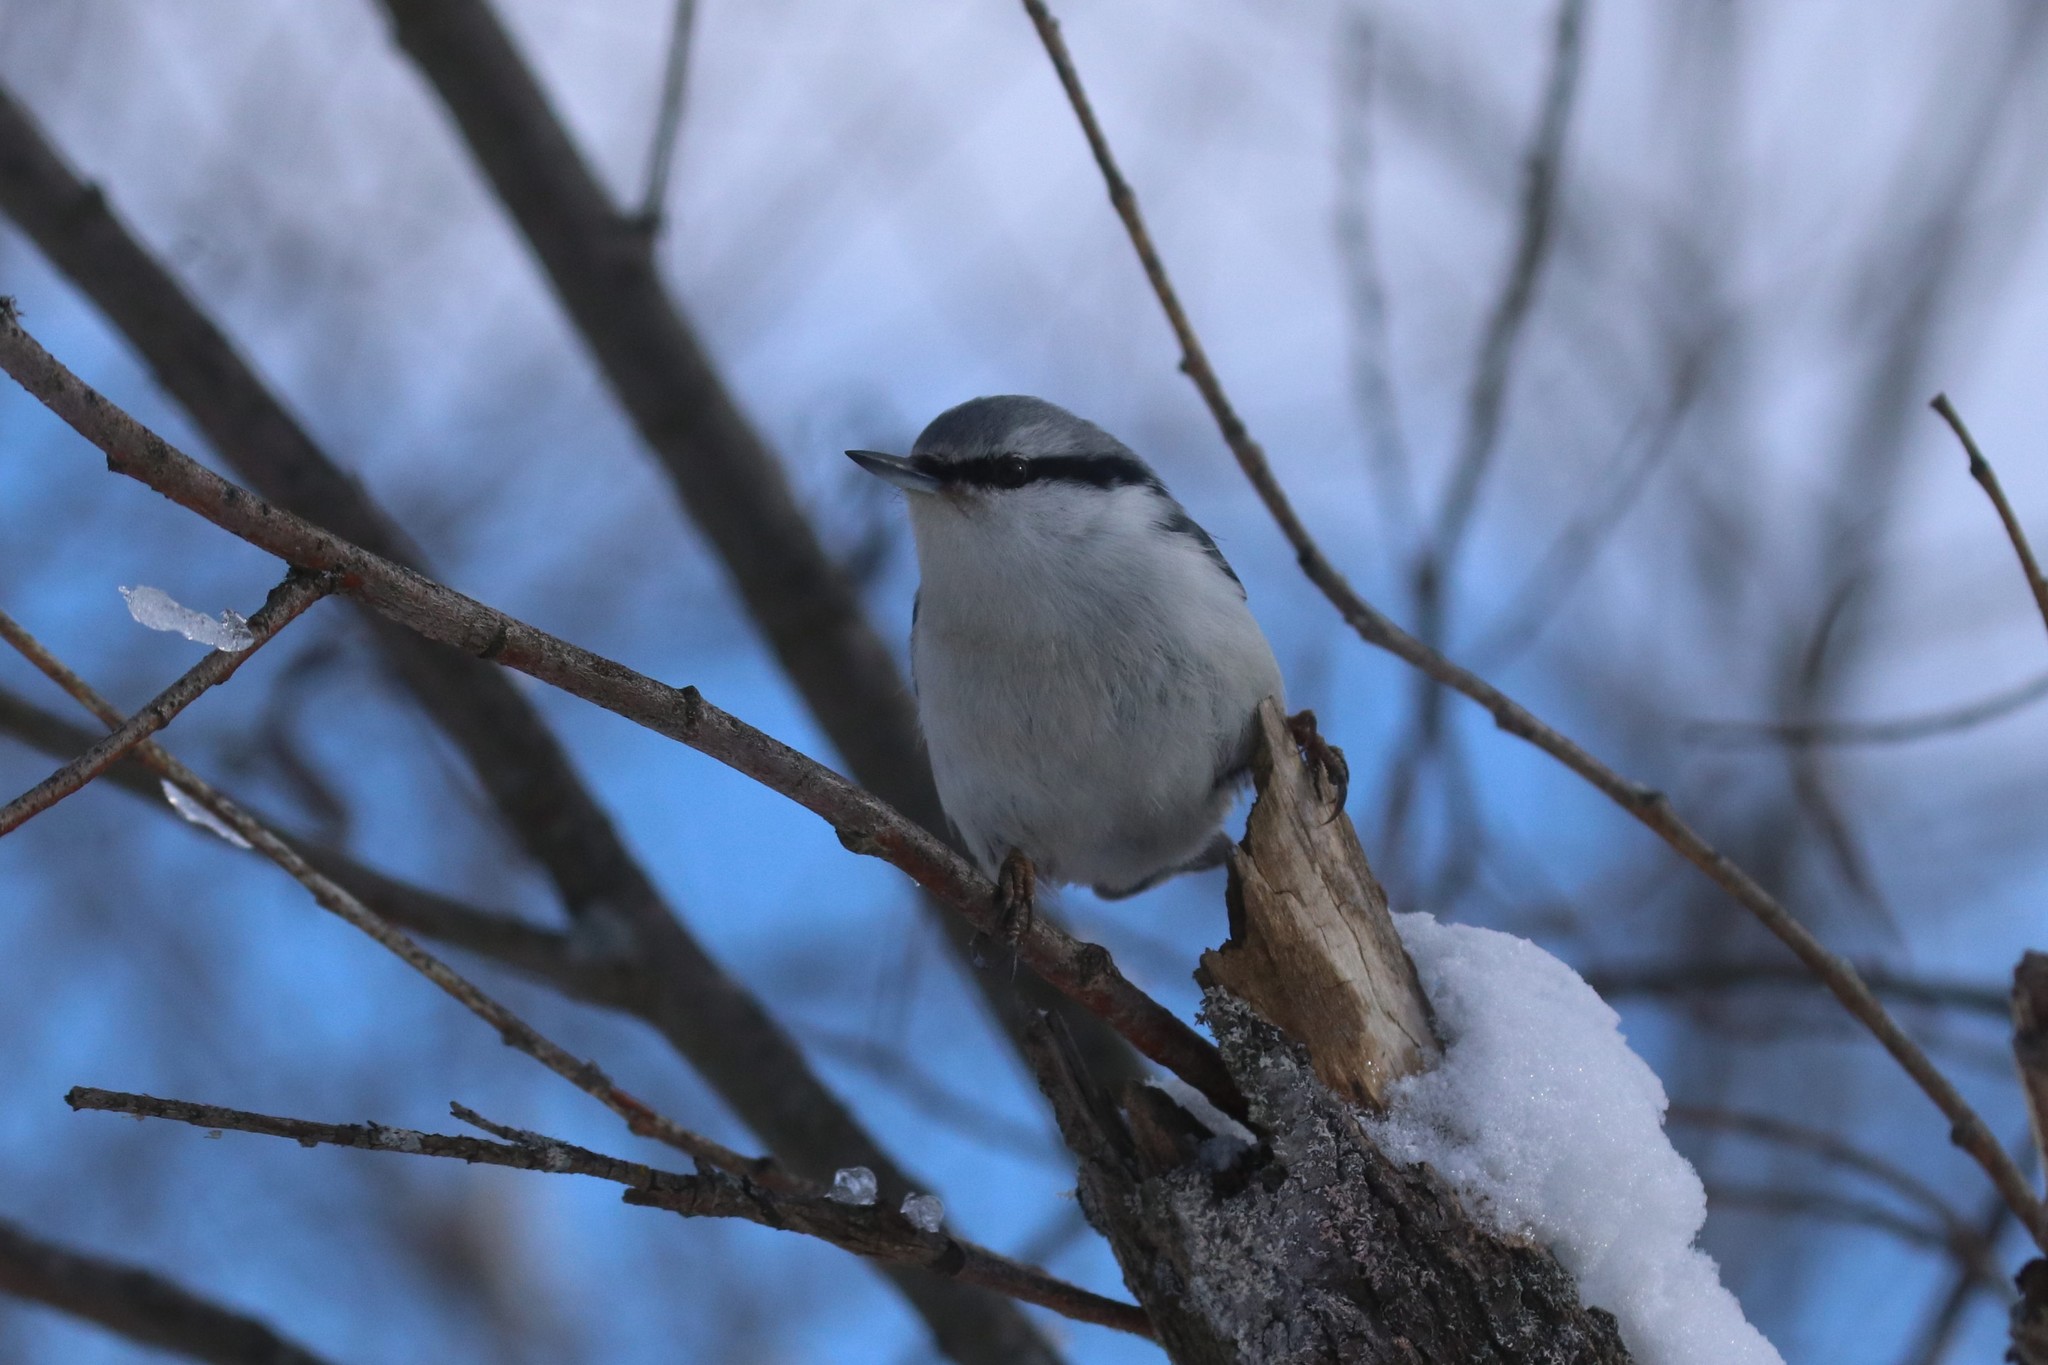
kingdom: Animalia
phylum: Chordata
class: Aves
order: Passeriformes
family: Sittidae
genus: Sitta
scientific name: Sitta europaea
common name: Eurasian nuthatch
